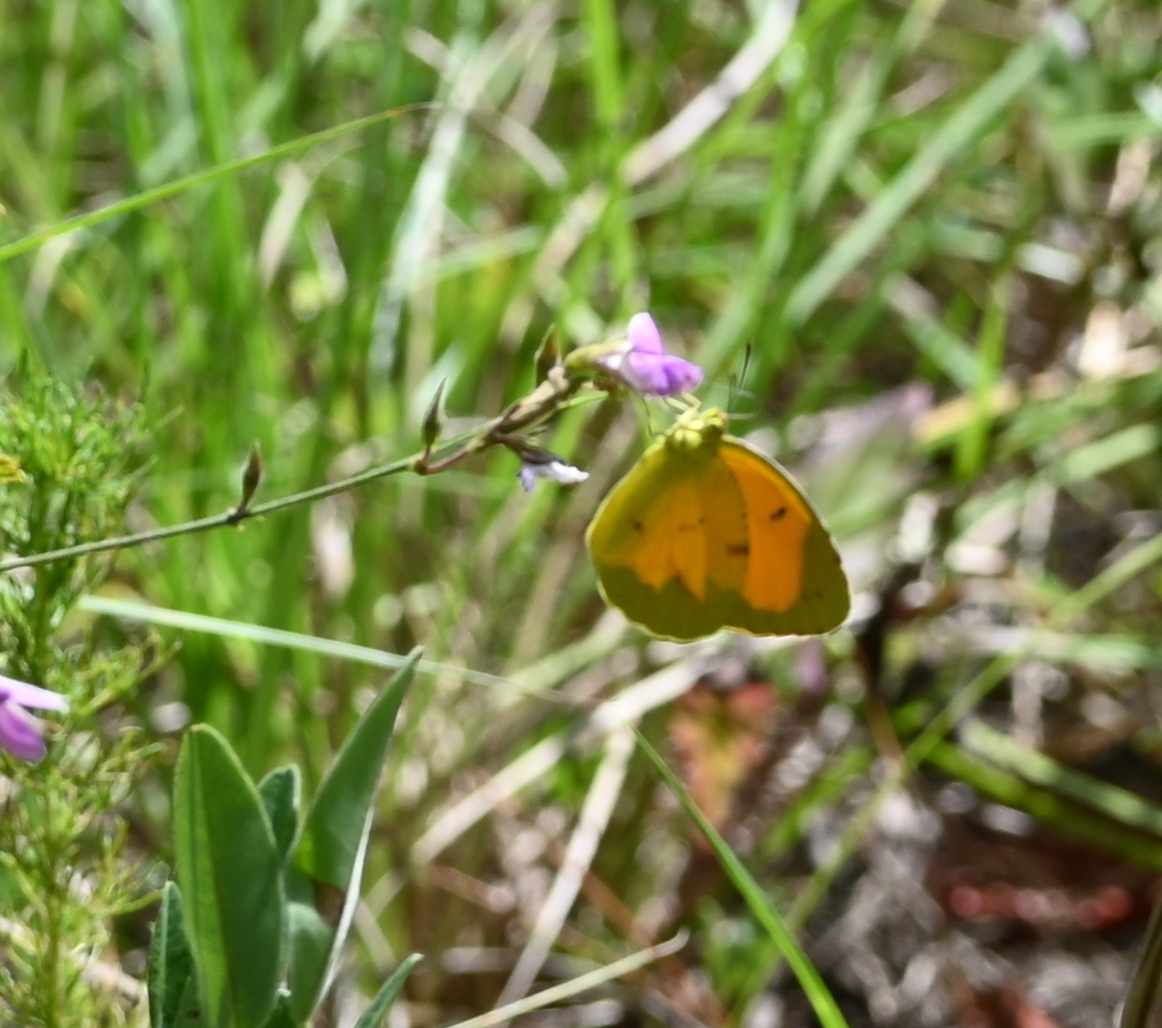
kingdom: Animalia
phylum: Arthropoda
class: Insecta
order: Lepidoptera
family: Pieridae
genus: Abaeis
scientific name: Abaeis nicippe
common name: Sleepy orange
